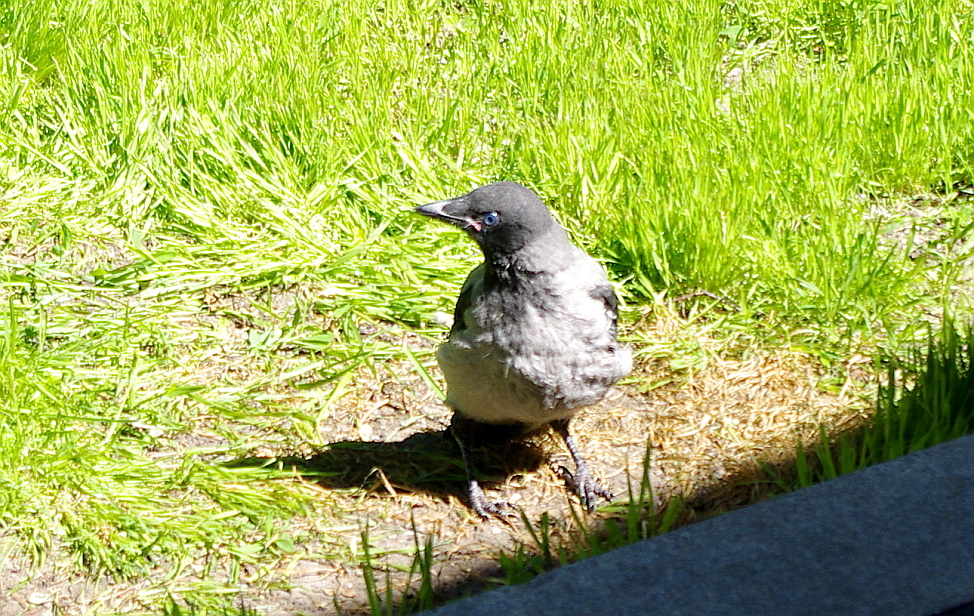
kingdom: Animalia
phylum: Chordata
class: Aves
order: Passeriformes
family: Corvidae
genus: Corvus
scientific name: Corvus cornix
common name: Hooded crow
